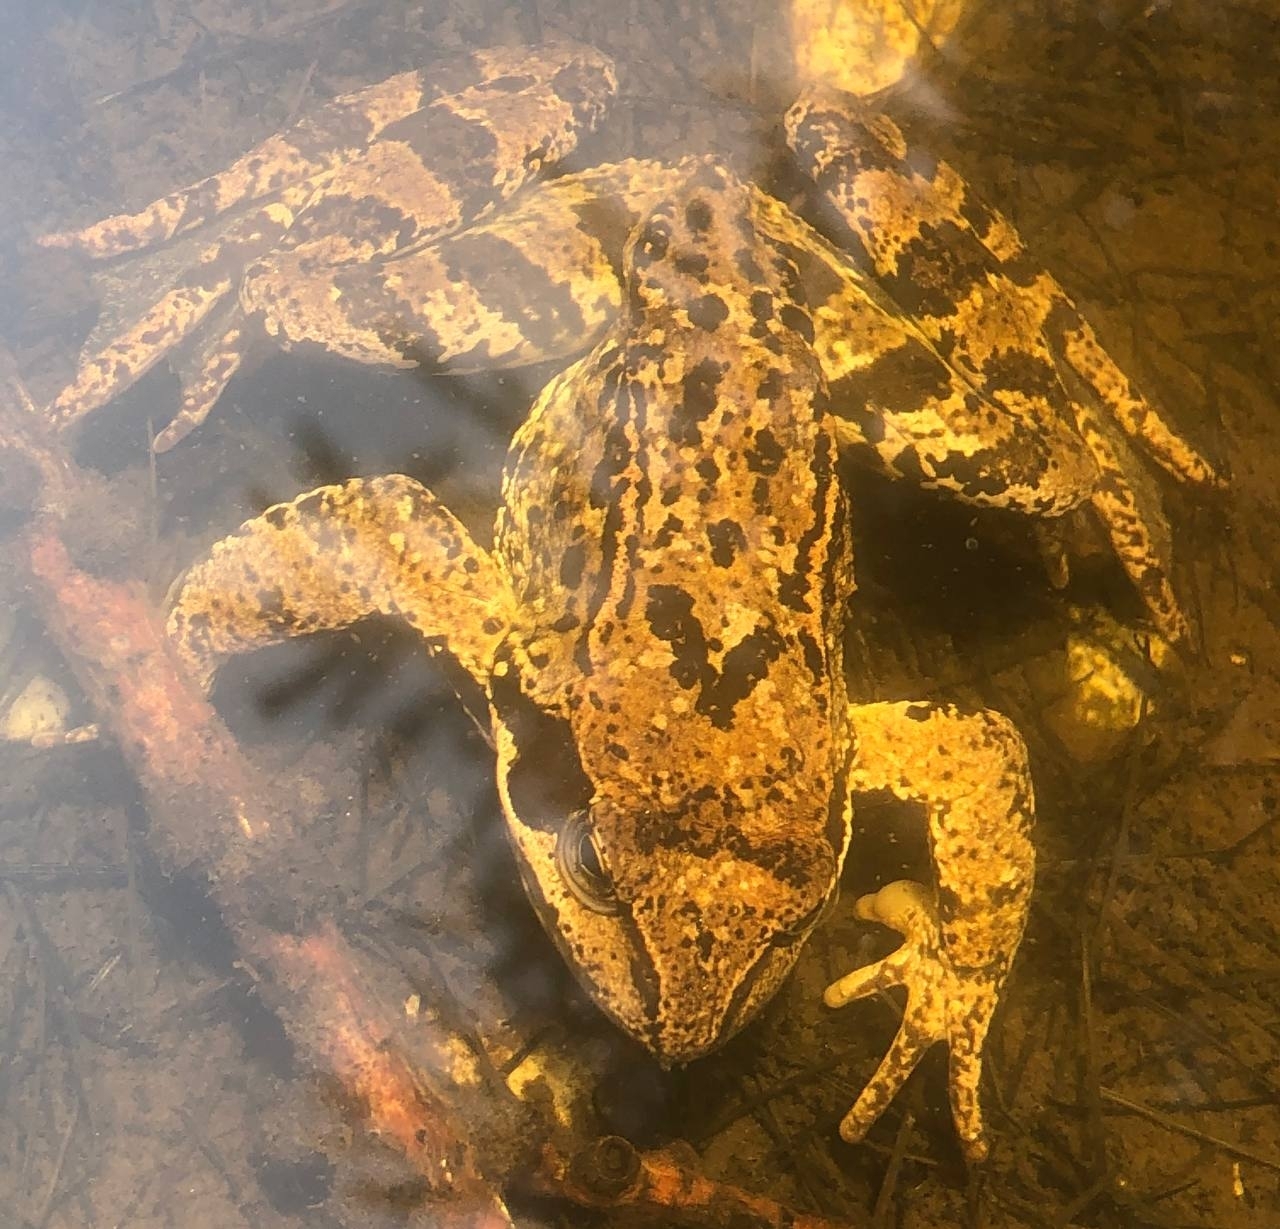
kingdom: Animalia
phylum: Chordata
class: Amphibia
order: Anura
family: Ranidae
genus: Rana
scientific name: Rana temporaria
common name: Common frog
